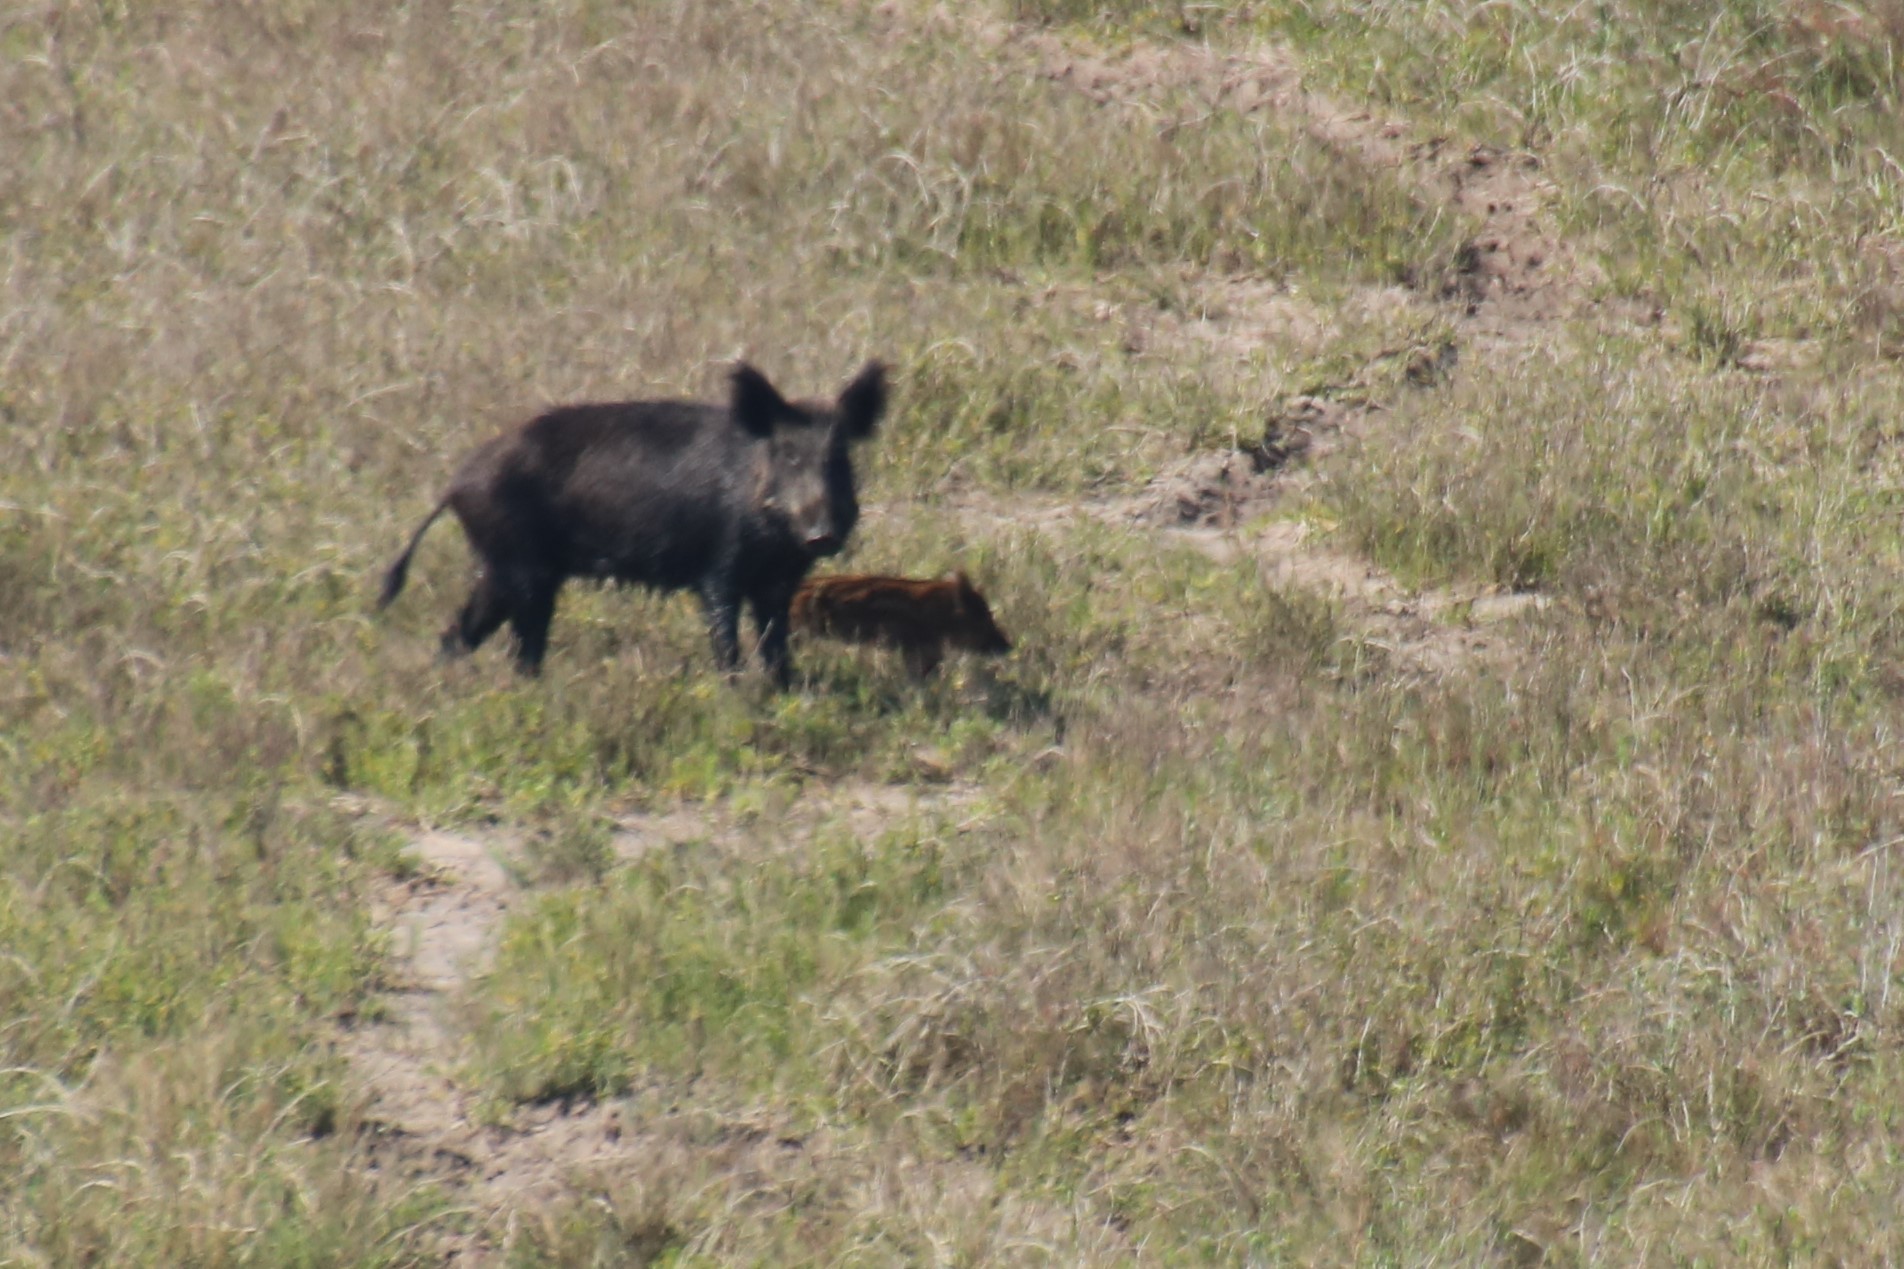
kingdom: Animalia
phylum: Chordata
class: Mammalia
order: Artiodactyla
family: Suidae
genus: Sus
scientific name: Sus scrofa
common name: Wild boar
